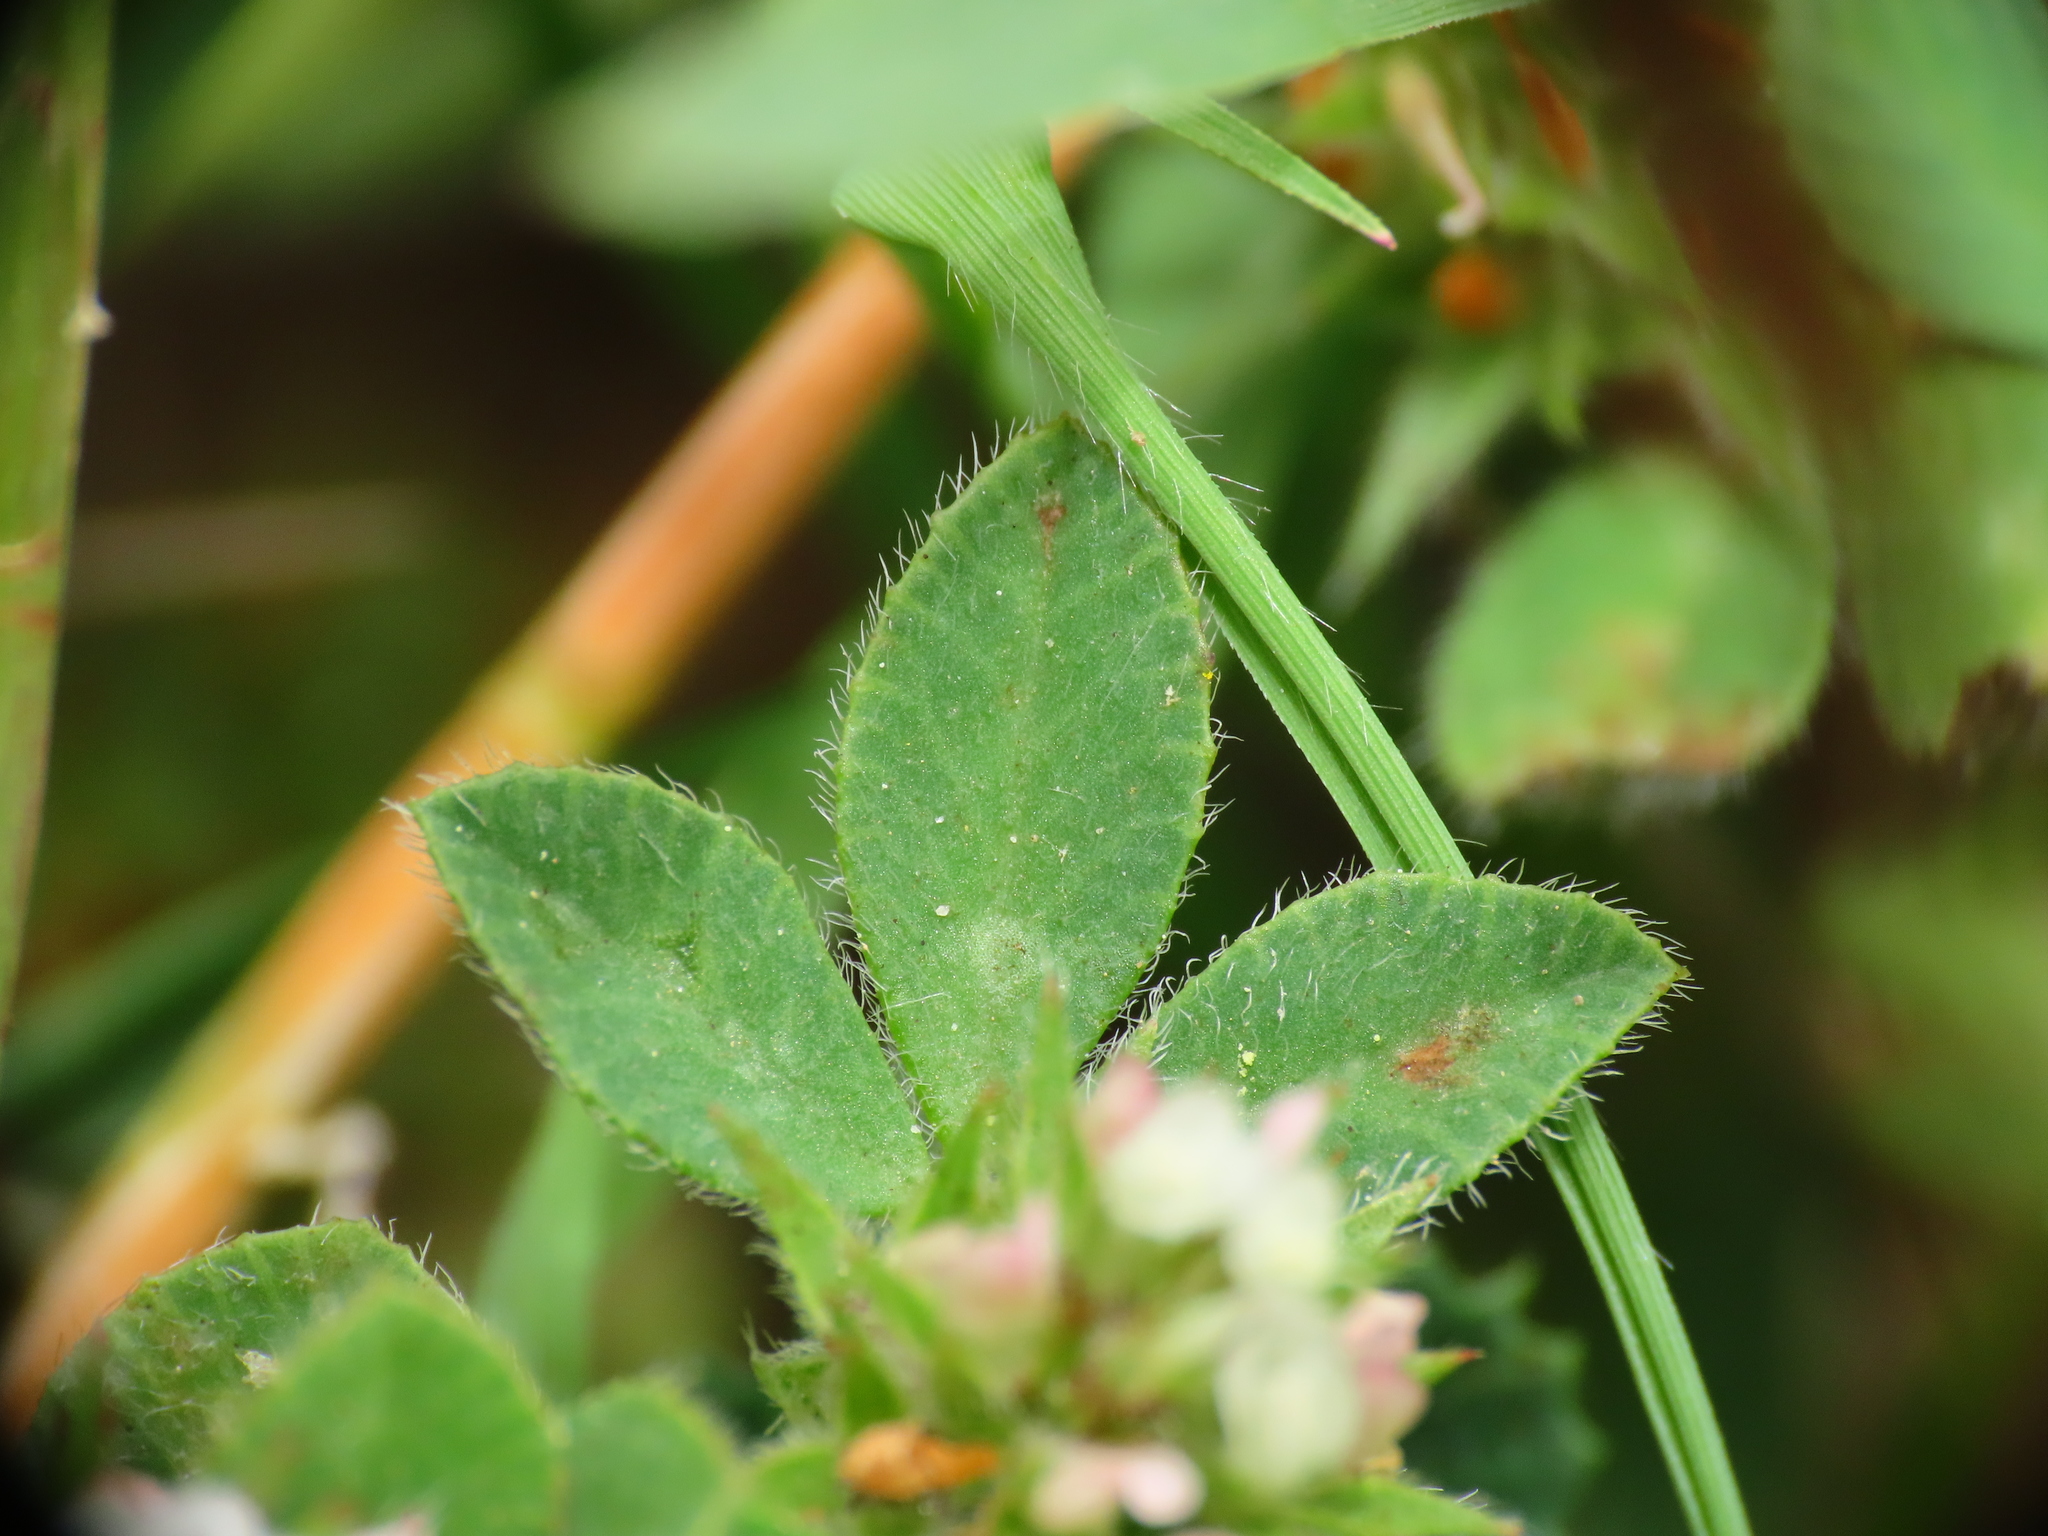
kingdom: Plantae
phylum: Tracheophyta
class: Magnoliopsida
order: Fabales
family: Fabaceae
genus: Trifolium
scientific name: Trifolium scabrum
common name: Rough clover
